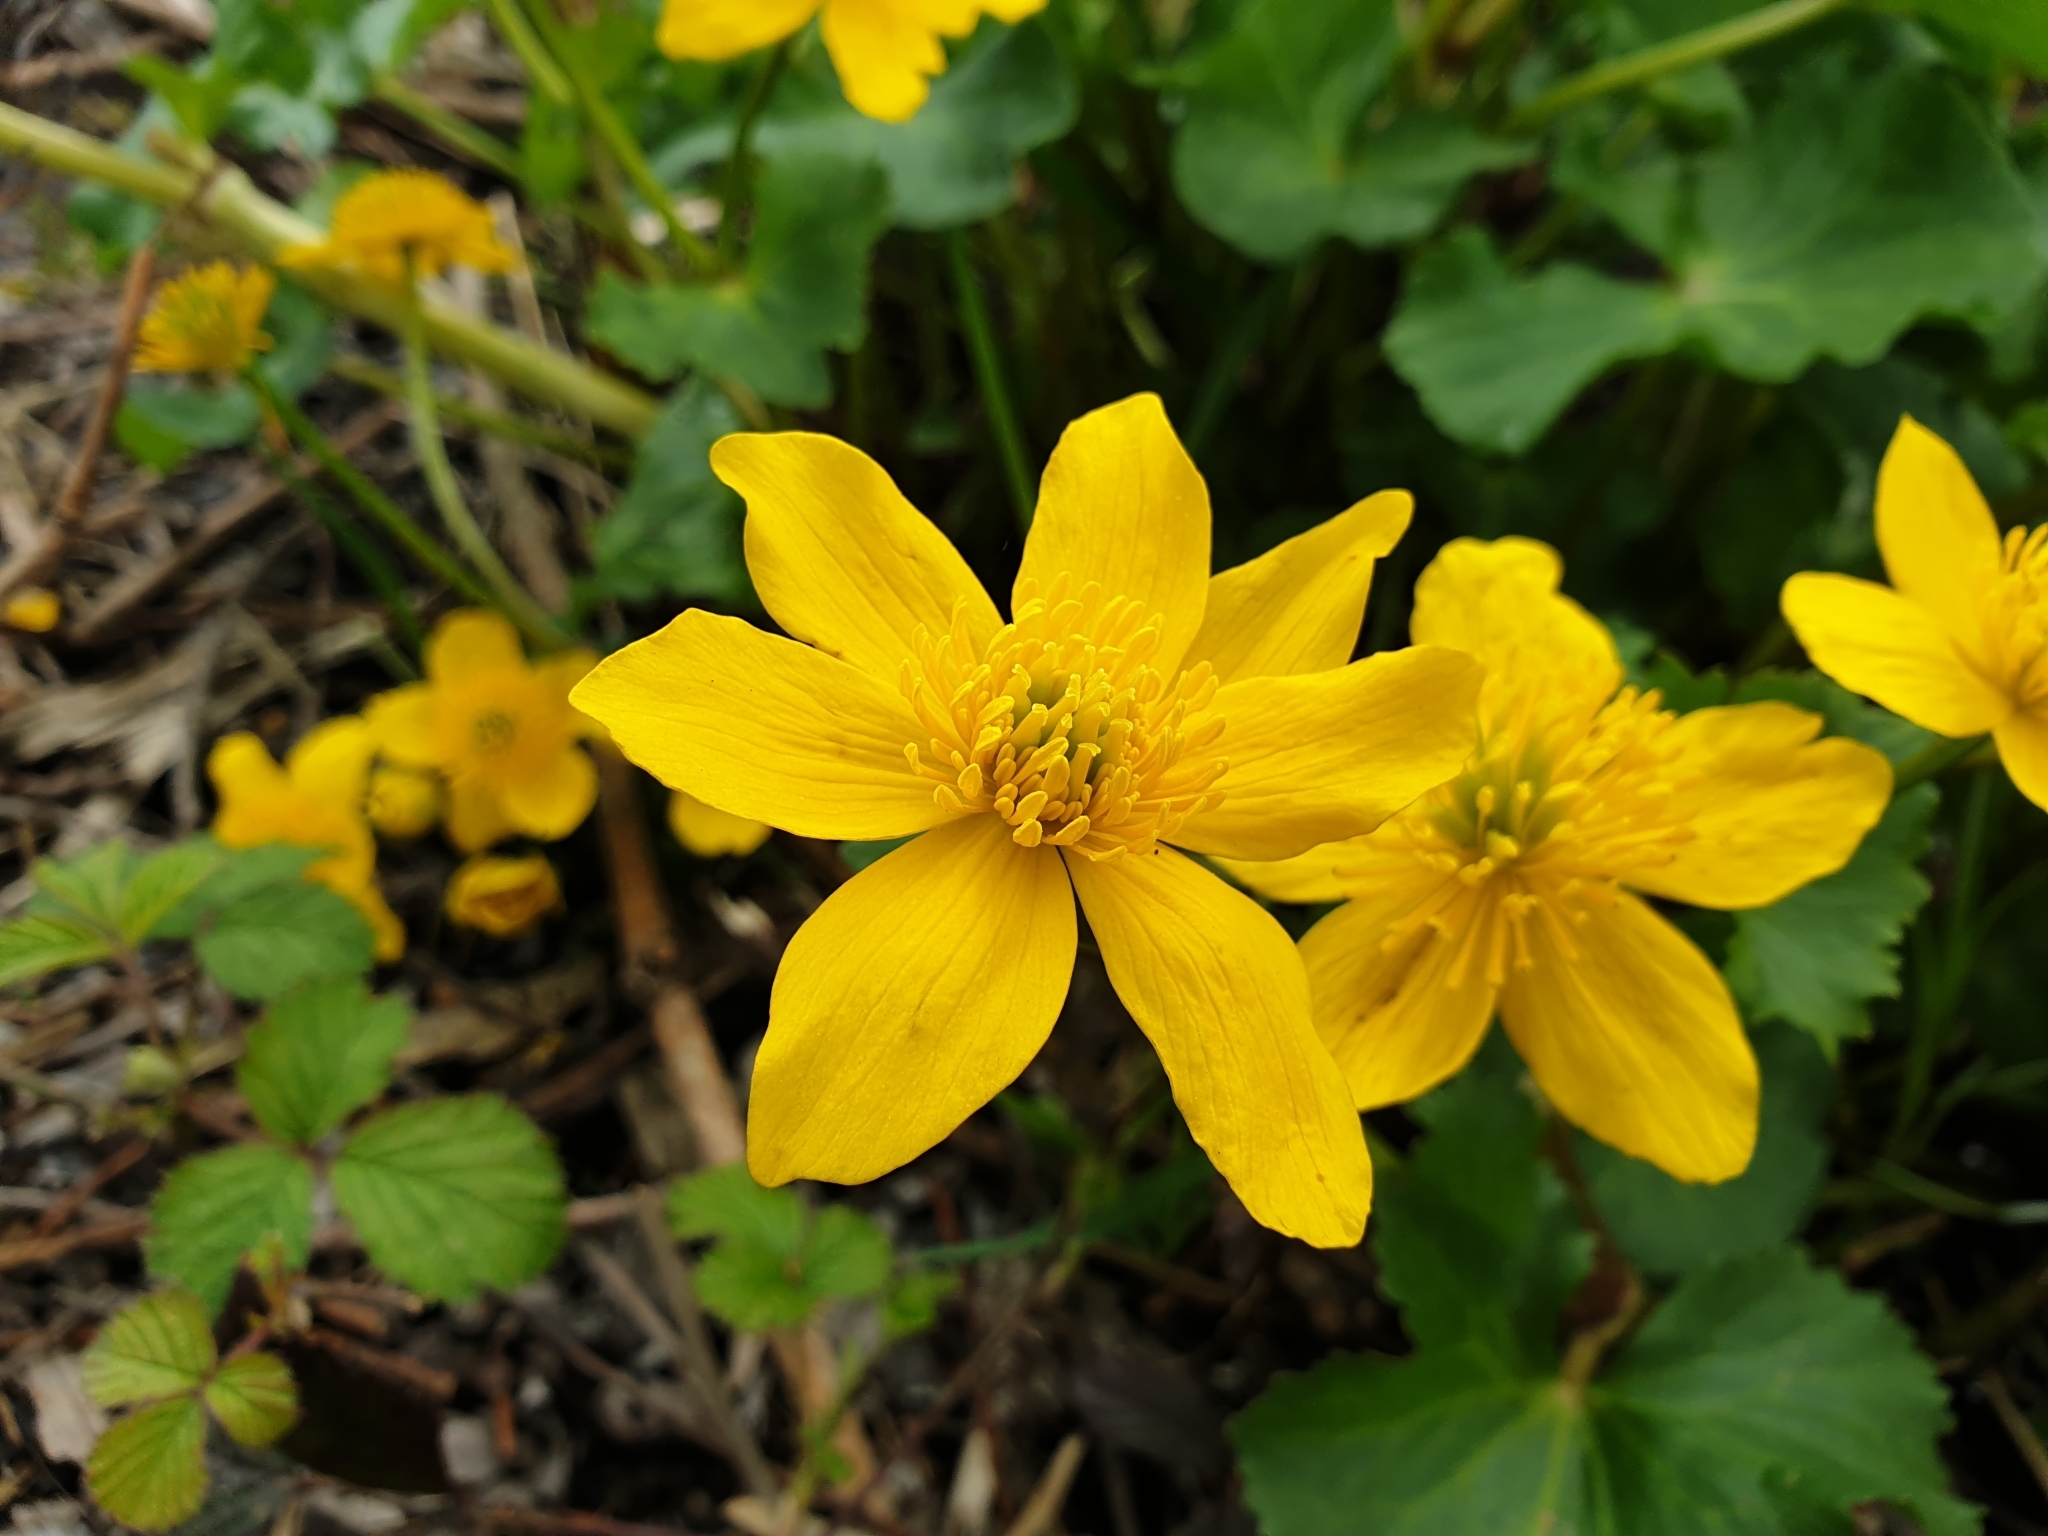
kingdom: Plantae
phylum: Tracheophyta
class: Magnoliopsida
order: Ranunculales
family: Ranunculaceae
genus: Caltha
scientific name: Caltha palustris
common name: Marsh marigold
